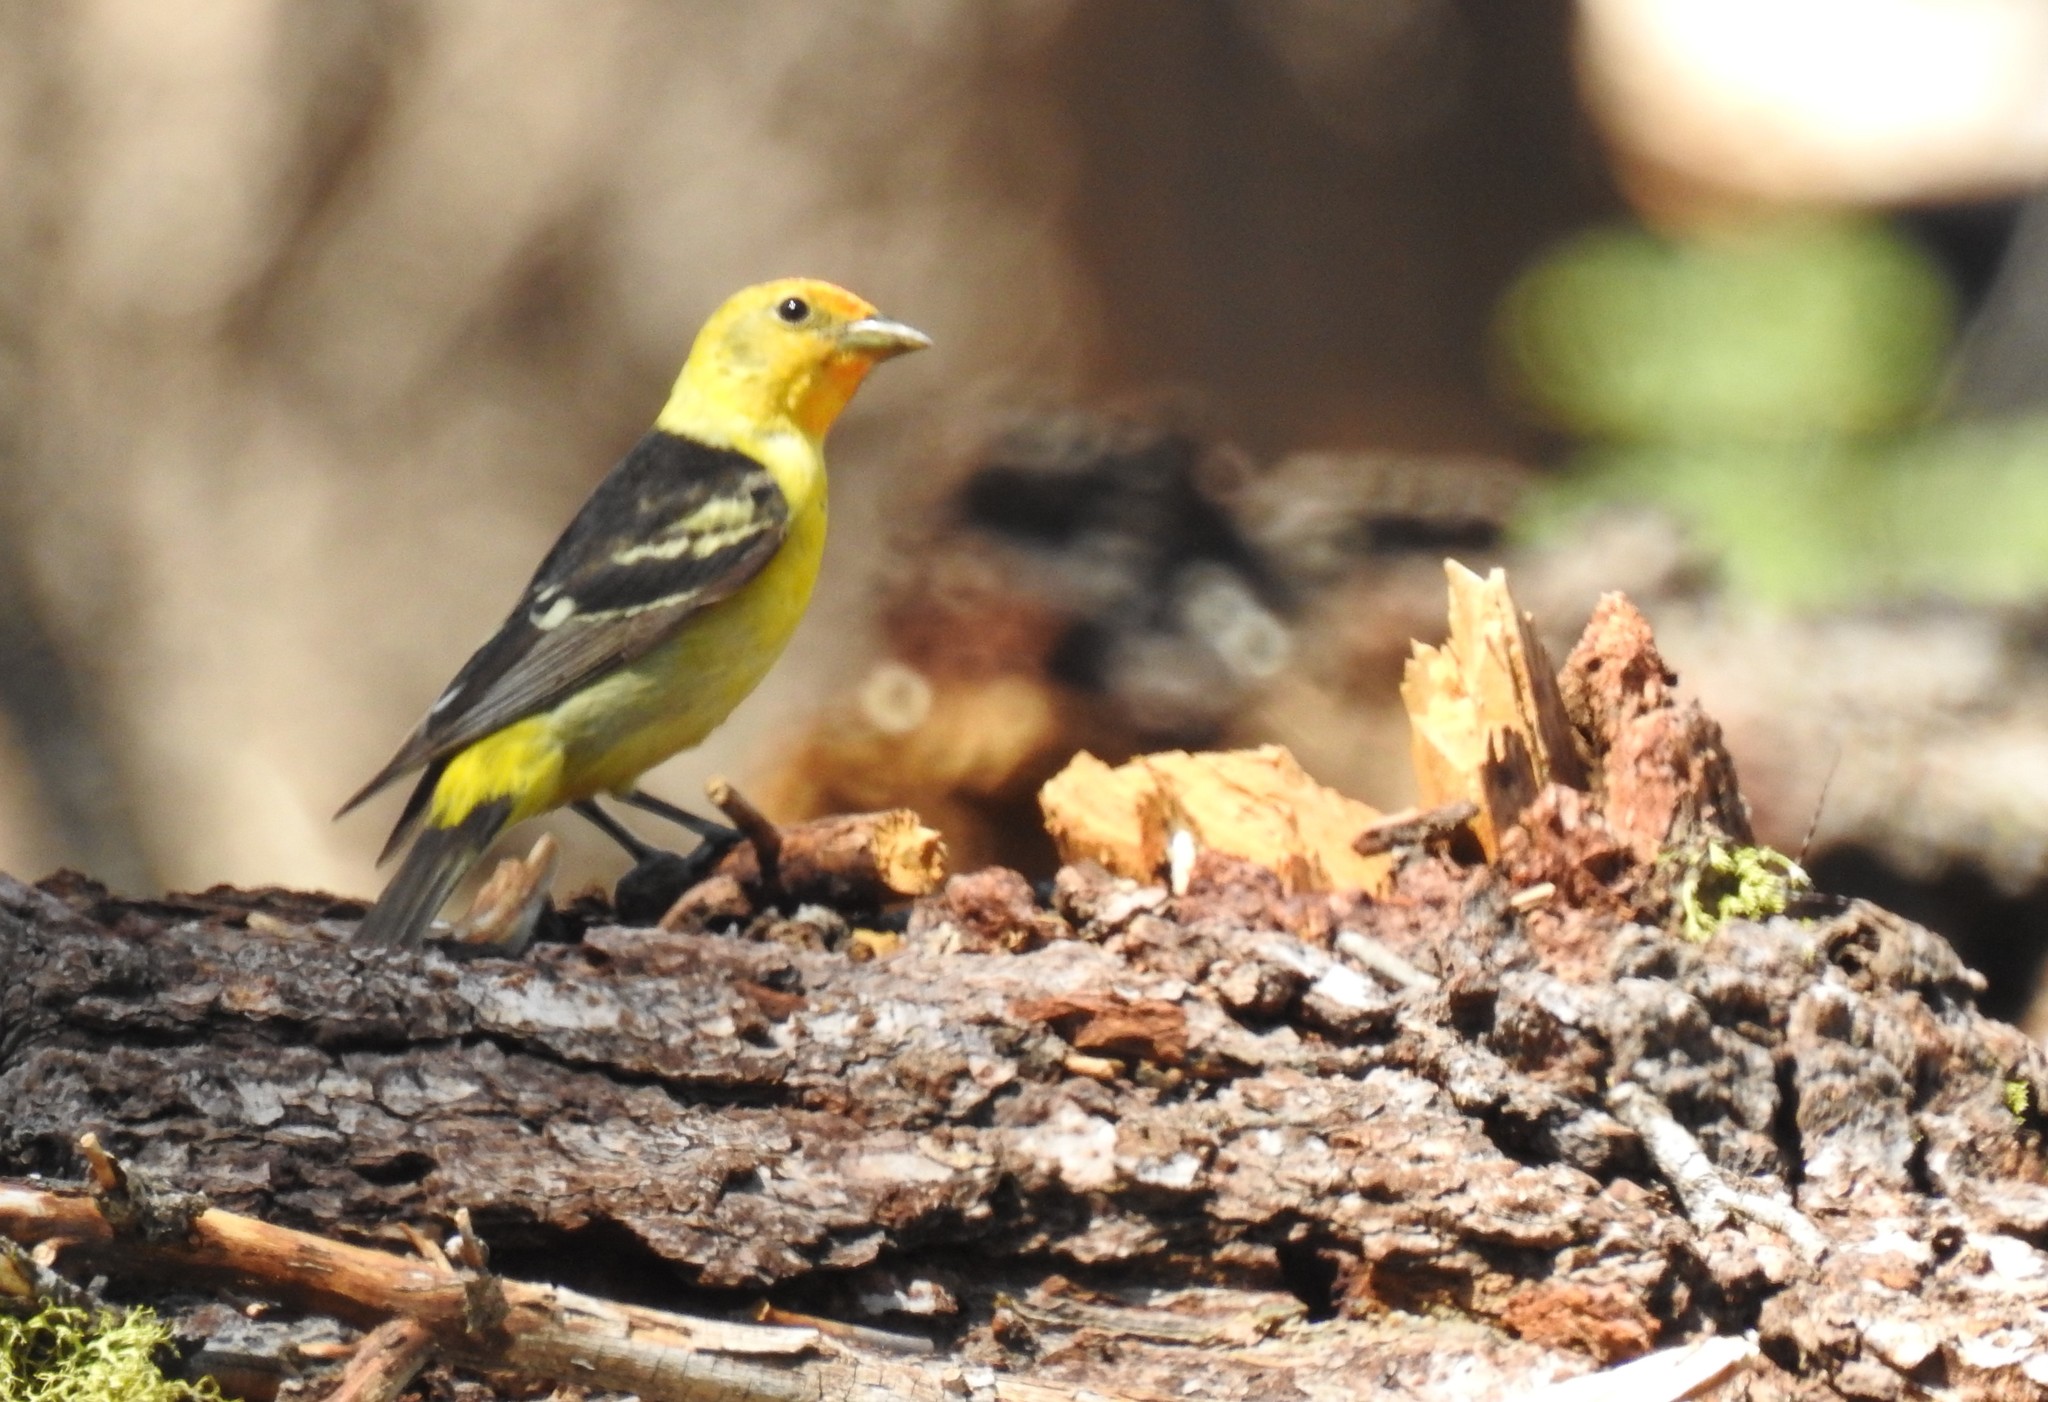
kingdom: Animalia
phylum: Chordata
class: Aves
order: Passeriformes
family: Cardinalidae
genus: Piranga
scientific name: Piranga ludoviciana
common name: Western tanager
